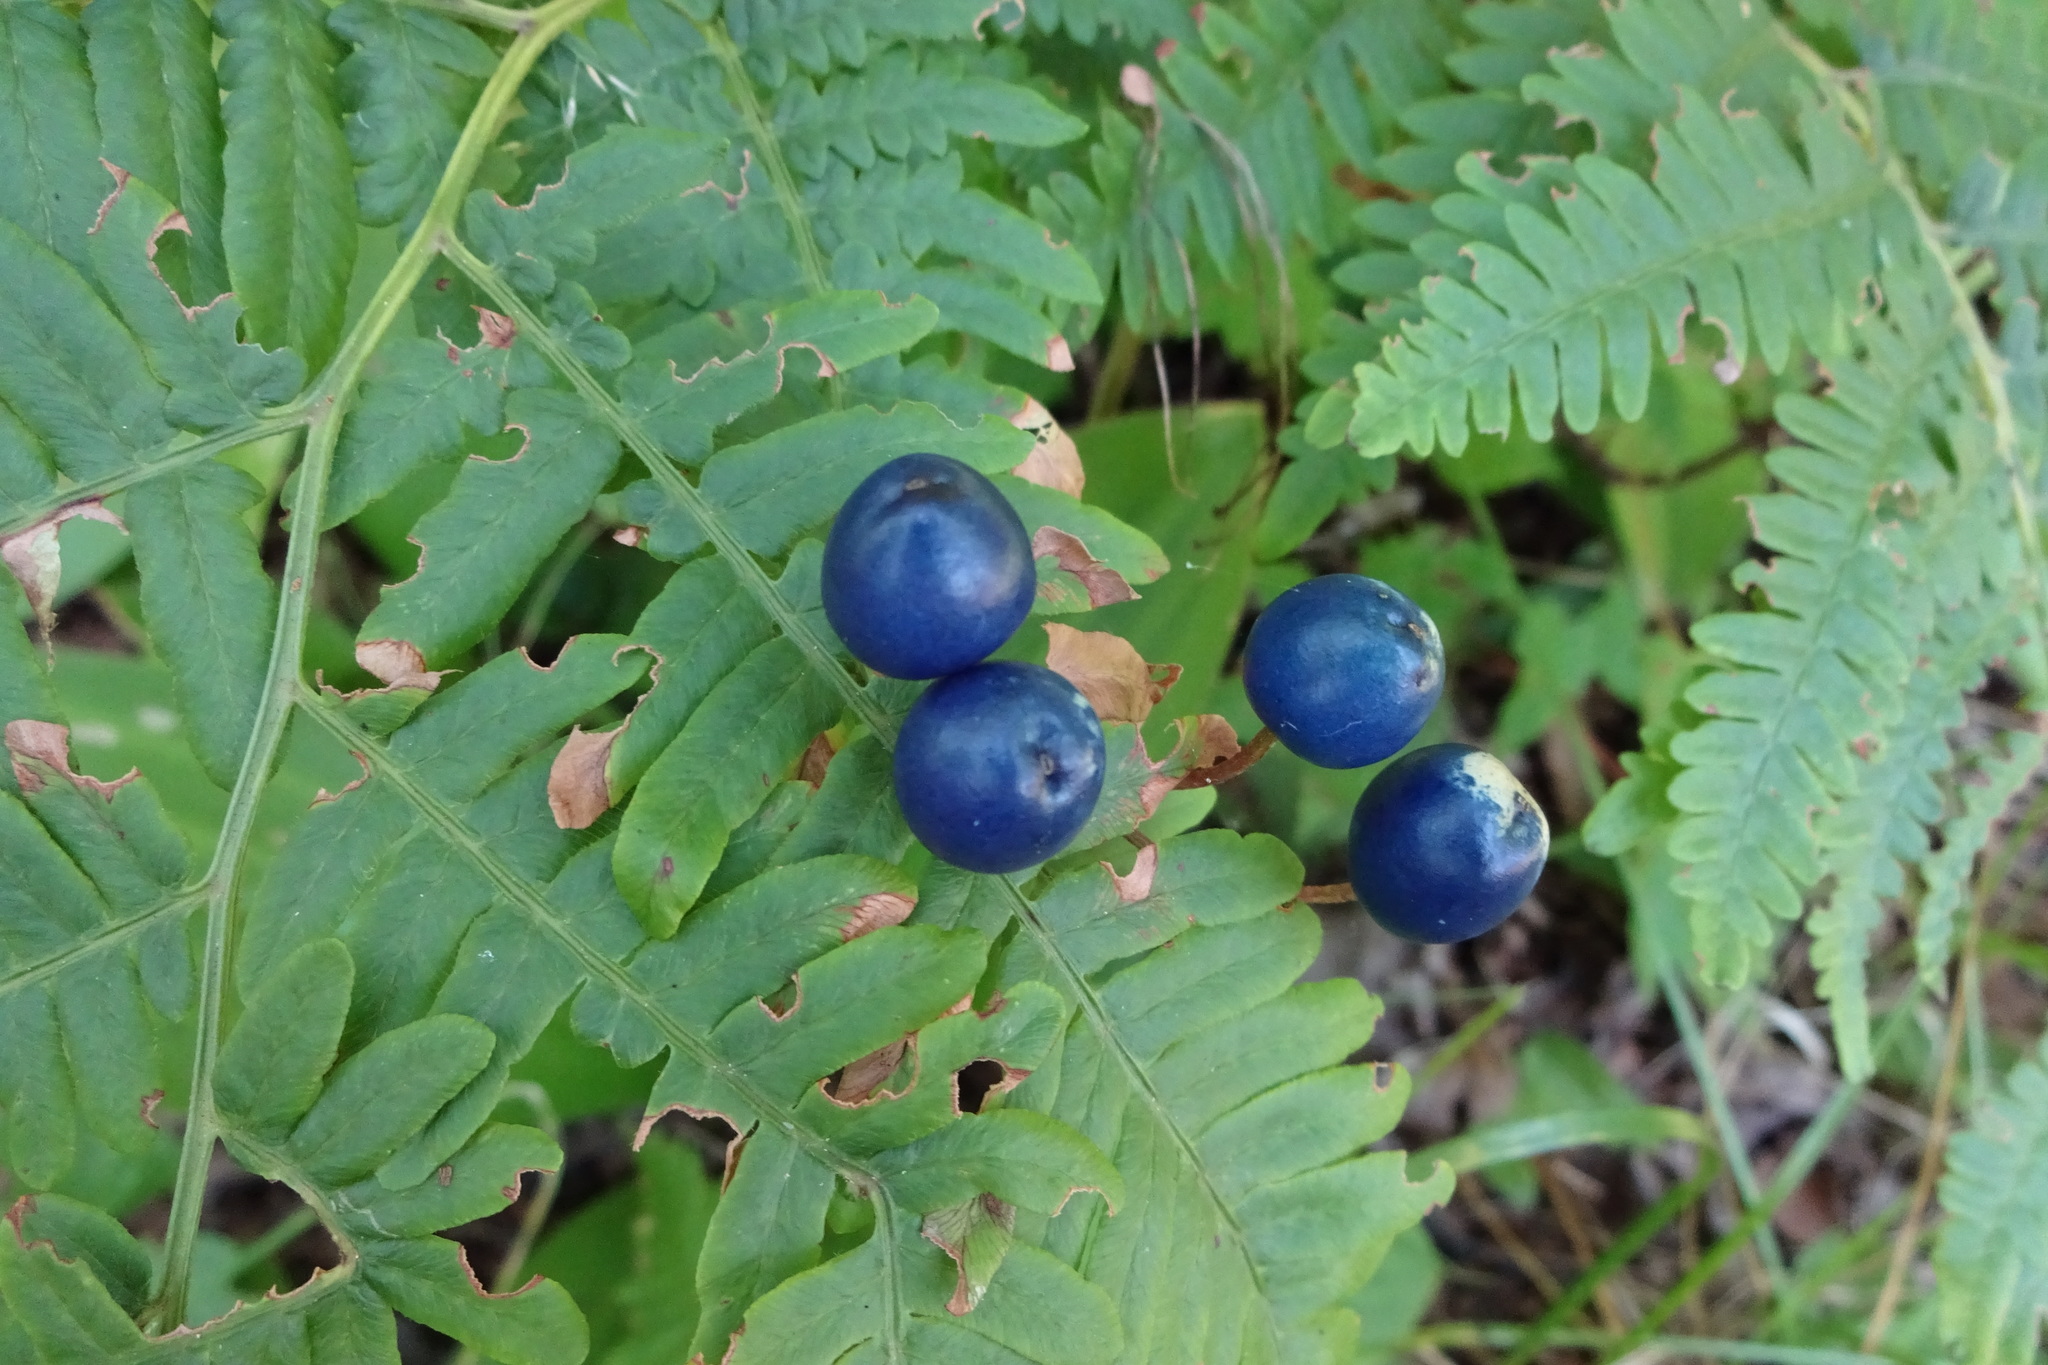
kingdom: Plantae
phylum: Tracheophyta
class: Liliopsida
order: Liliales
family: Liliaceae
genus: Clintonia
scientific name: Clintonia borealis
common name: Yellow clintonia
